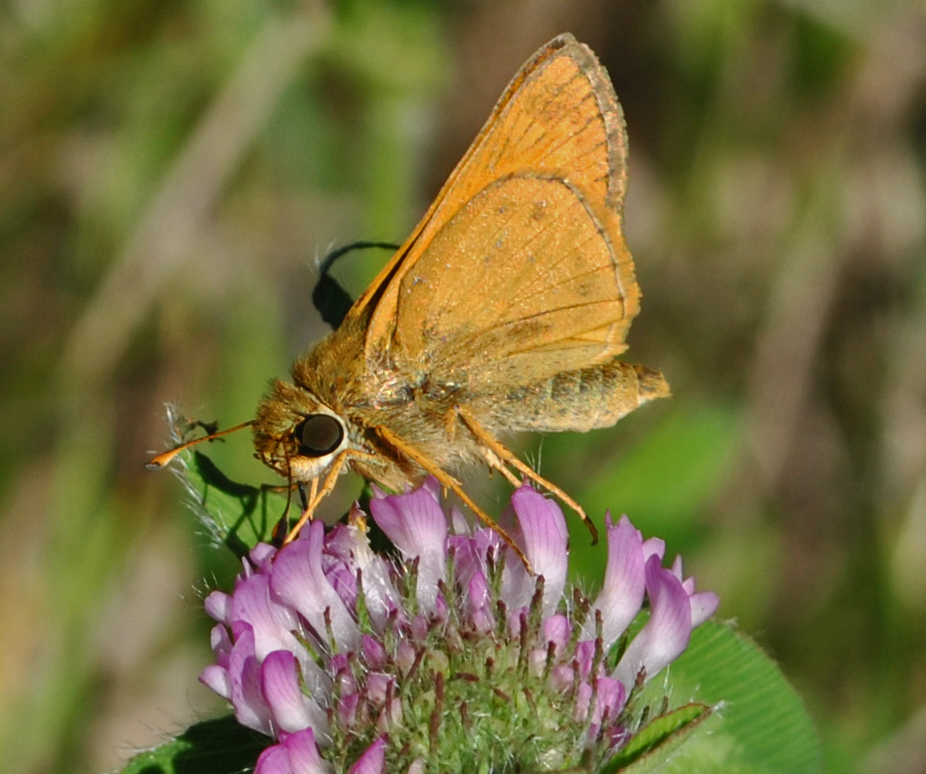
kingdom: Animalia
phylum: Arthropoda
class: Insecta
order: Lepidoptera
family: Hesperiidae
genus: Atalopedes
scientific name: Atalopedes
